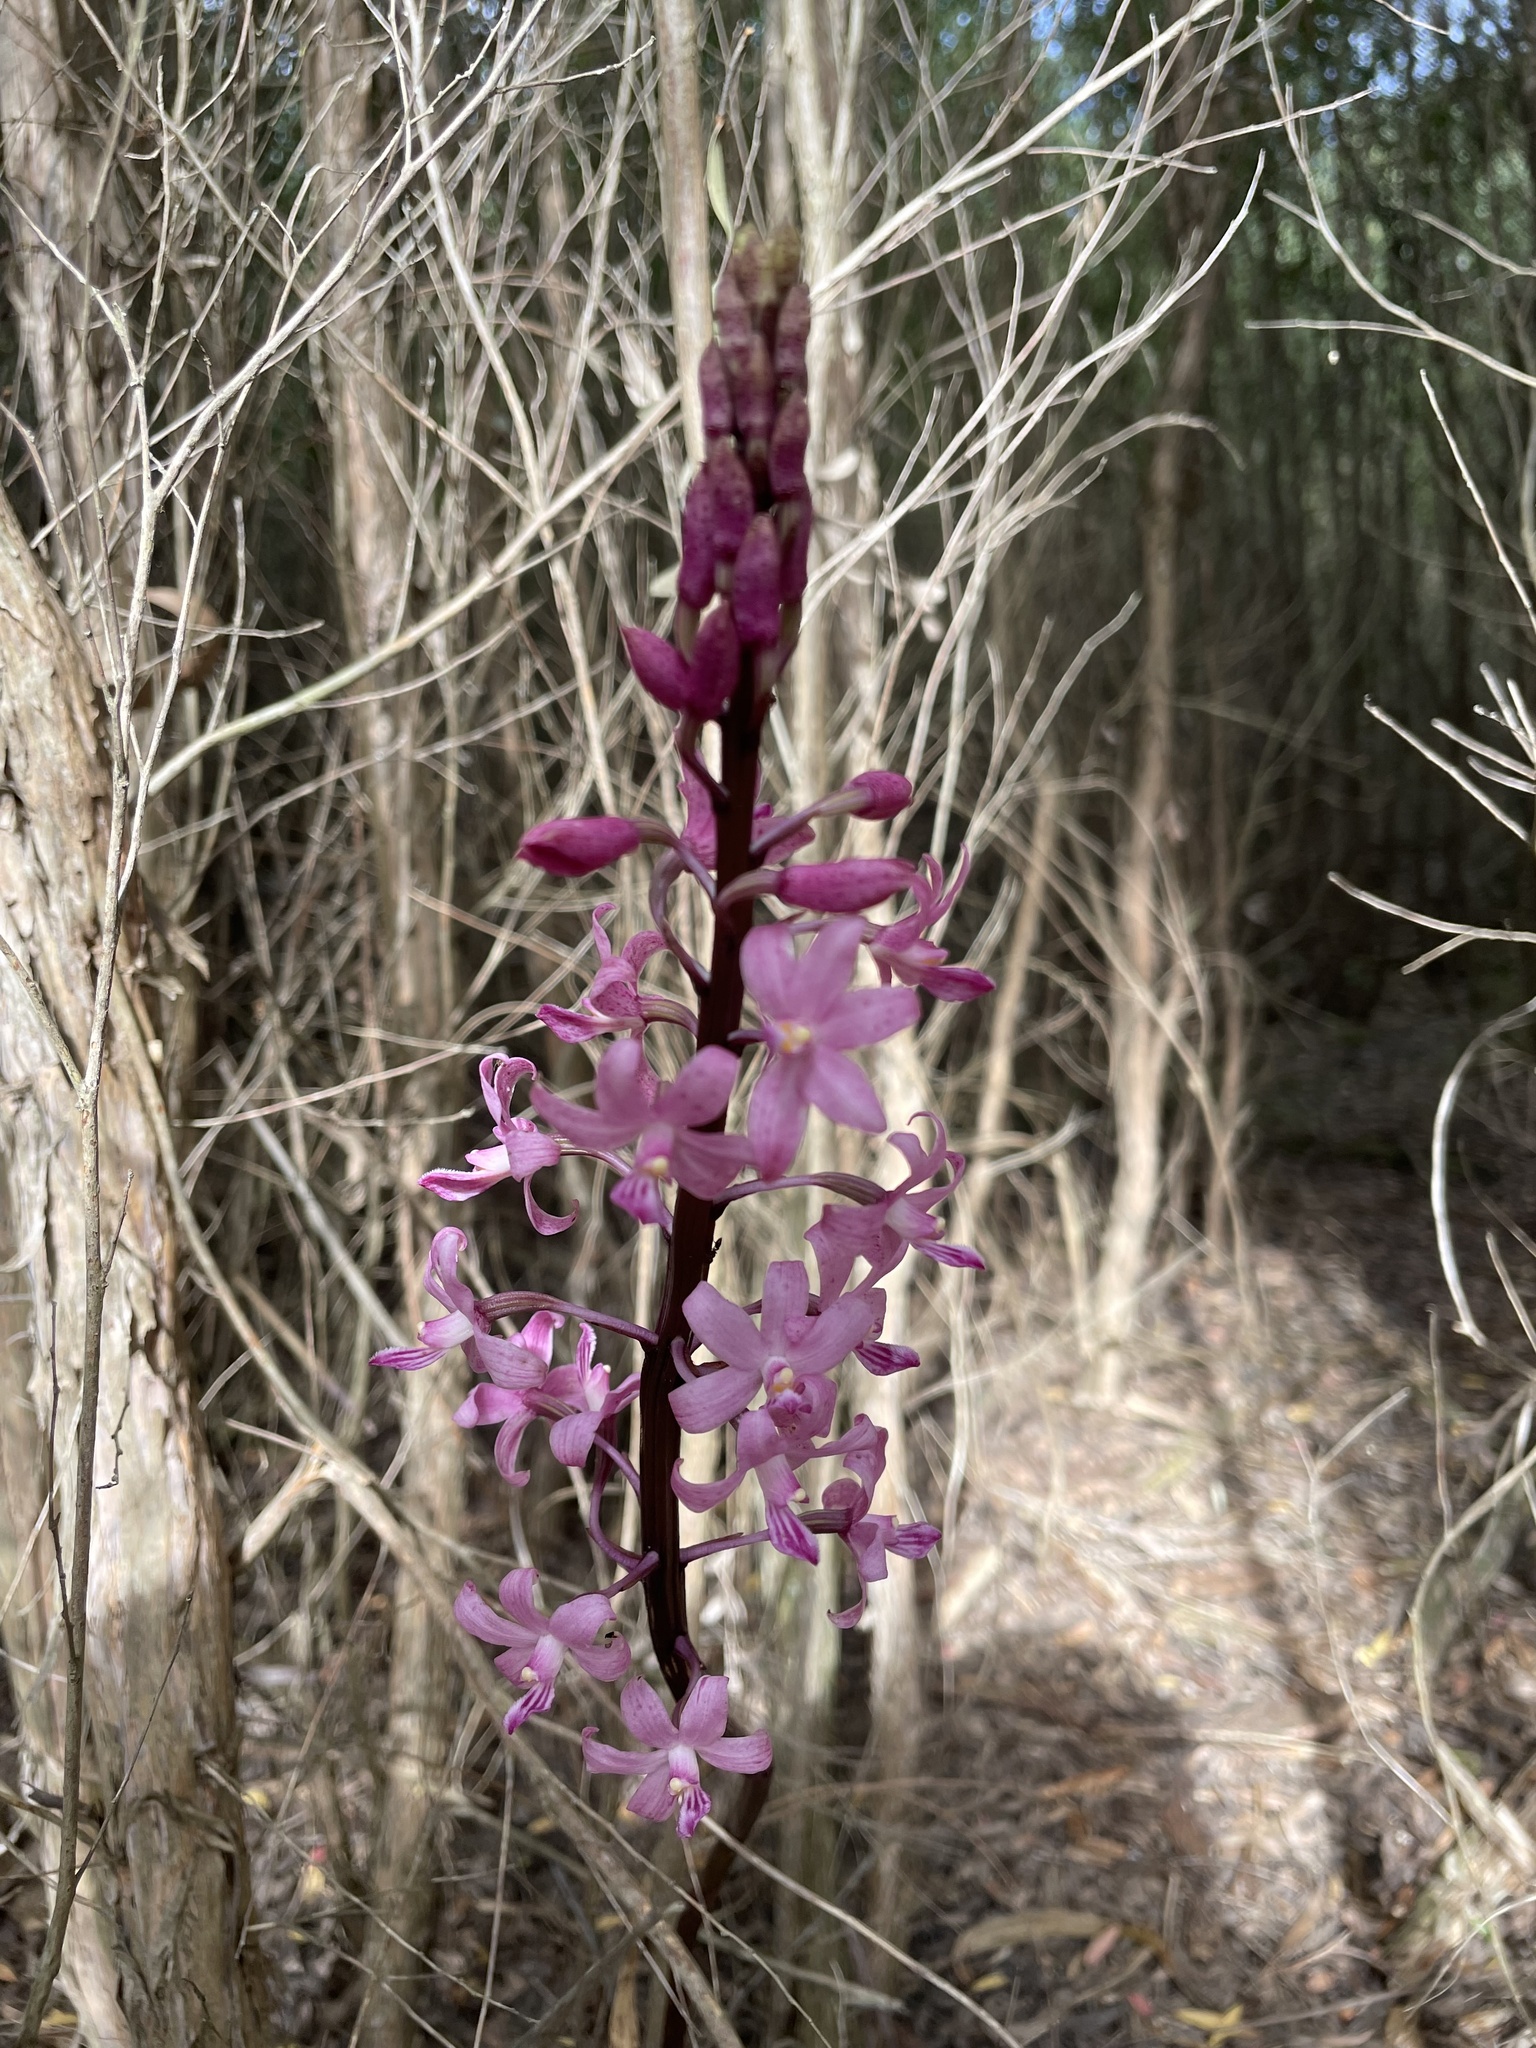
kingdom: Plantae
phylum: Tracheophyta
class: Liliopsida
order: Asparagales
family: Orchidaceae
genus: Dipodium
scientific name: Dipodium roseum
